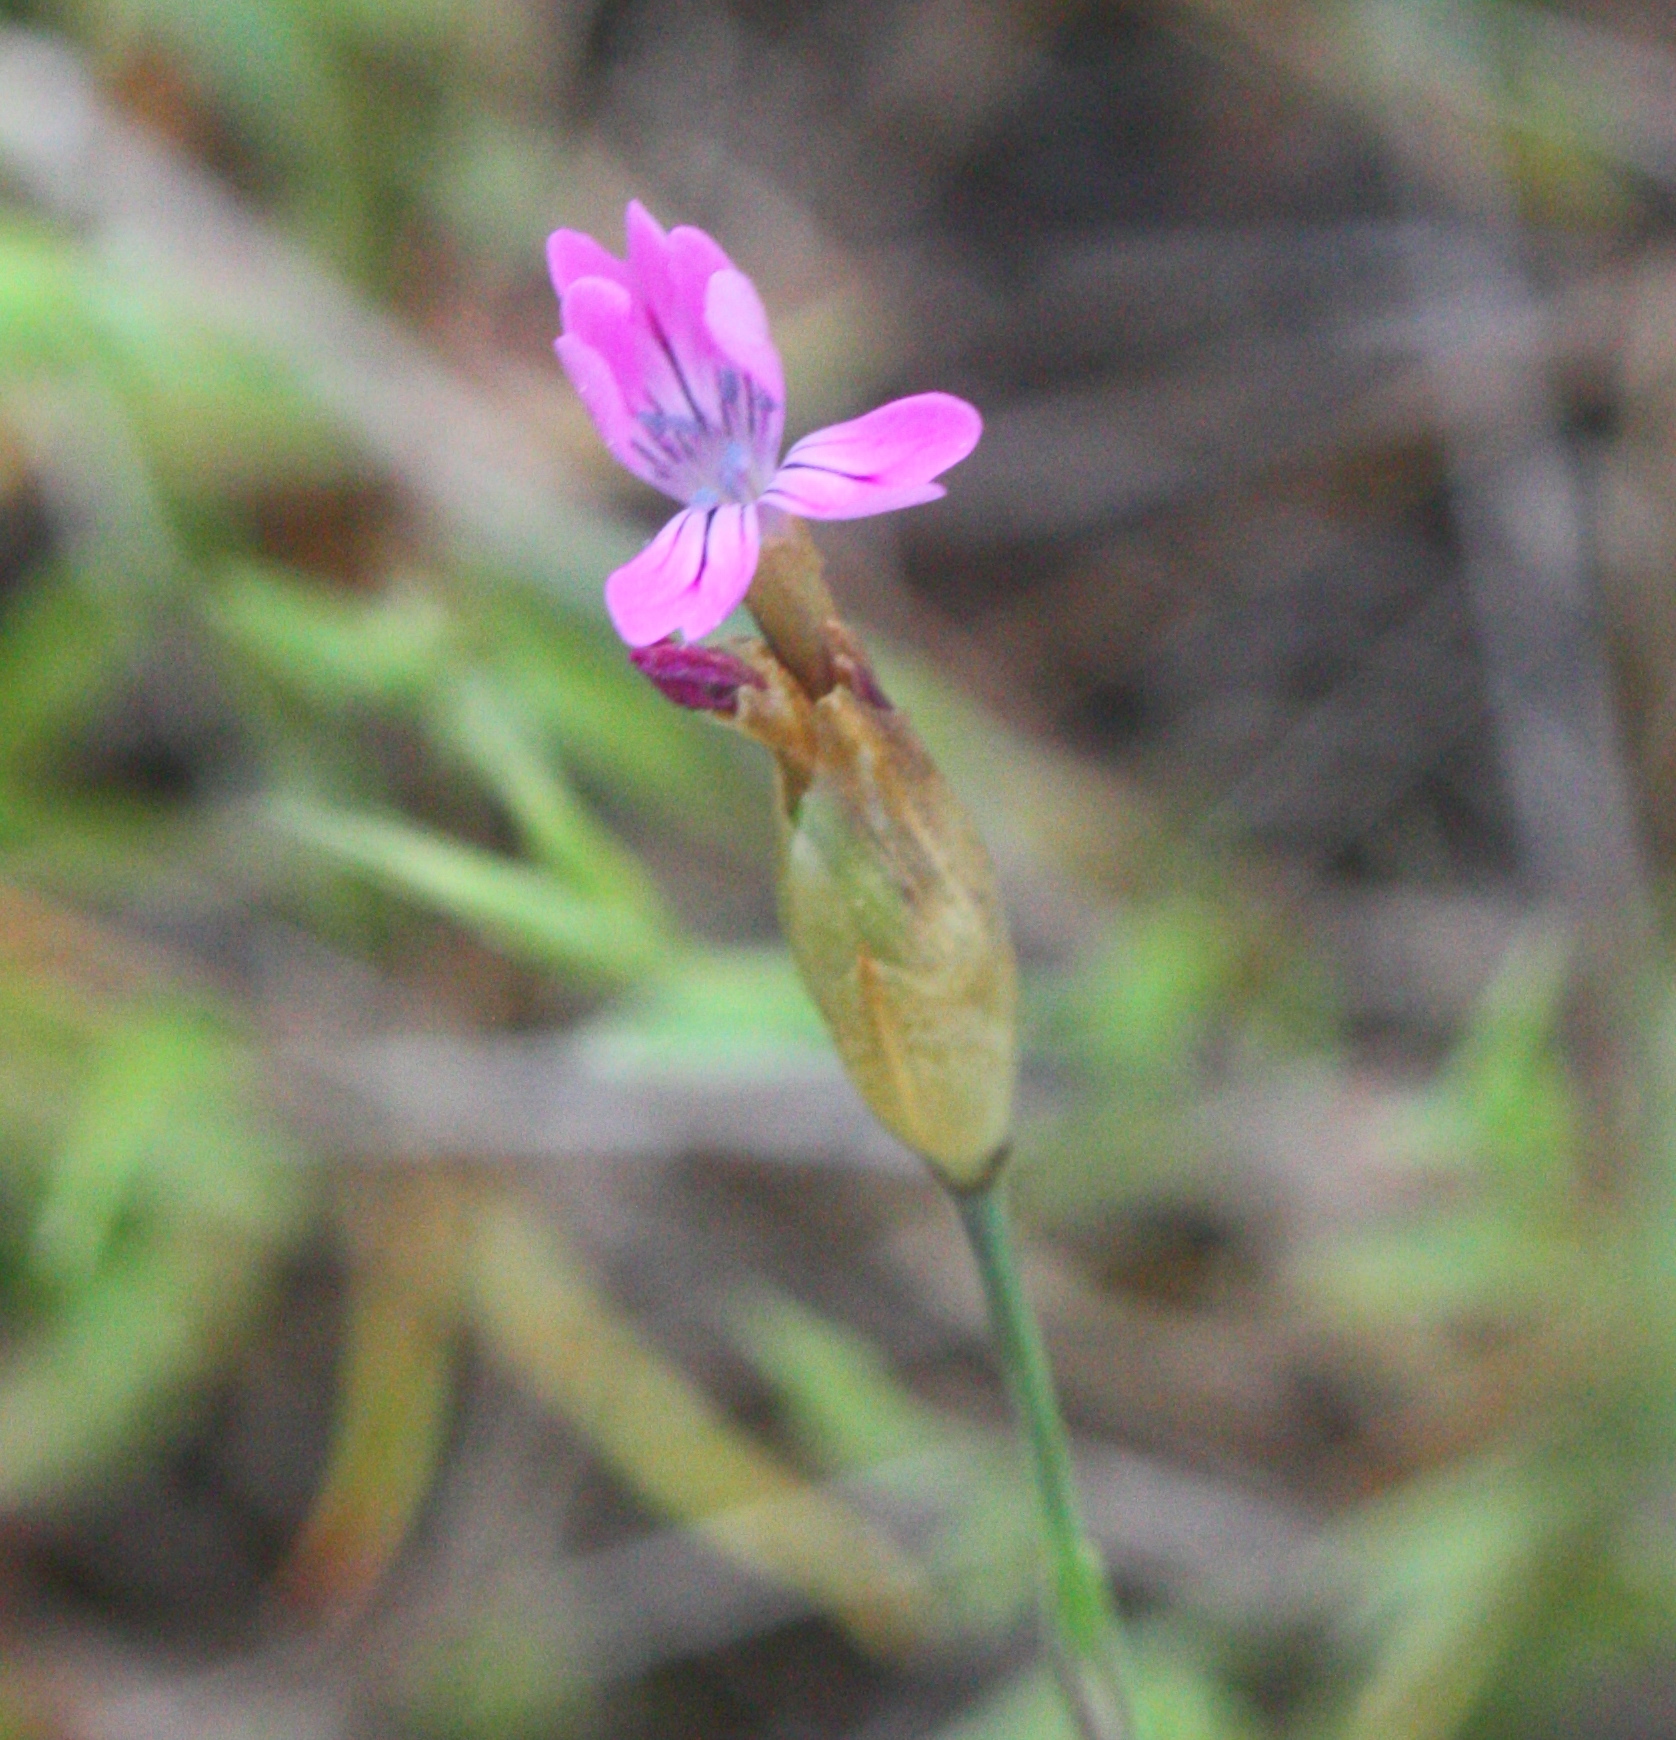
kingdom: Plantae
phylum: Tracheophyta
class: Magnoliopsida
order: Caryophyllales
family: Caryophyllaceae
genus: Petrorhagia
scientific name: Petrorhagia dubia
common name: Hairypink
